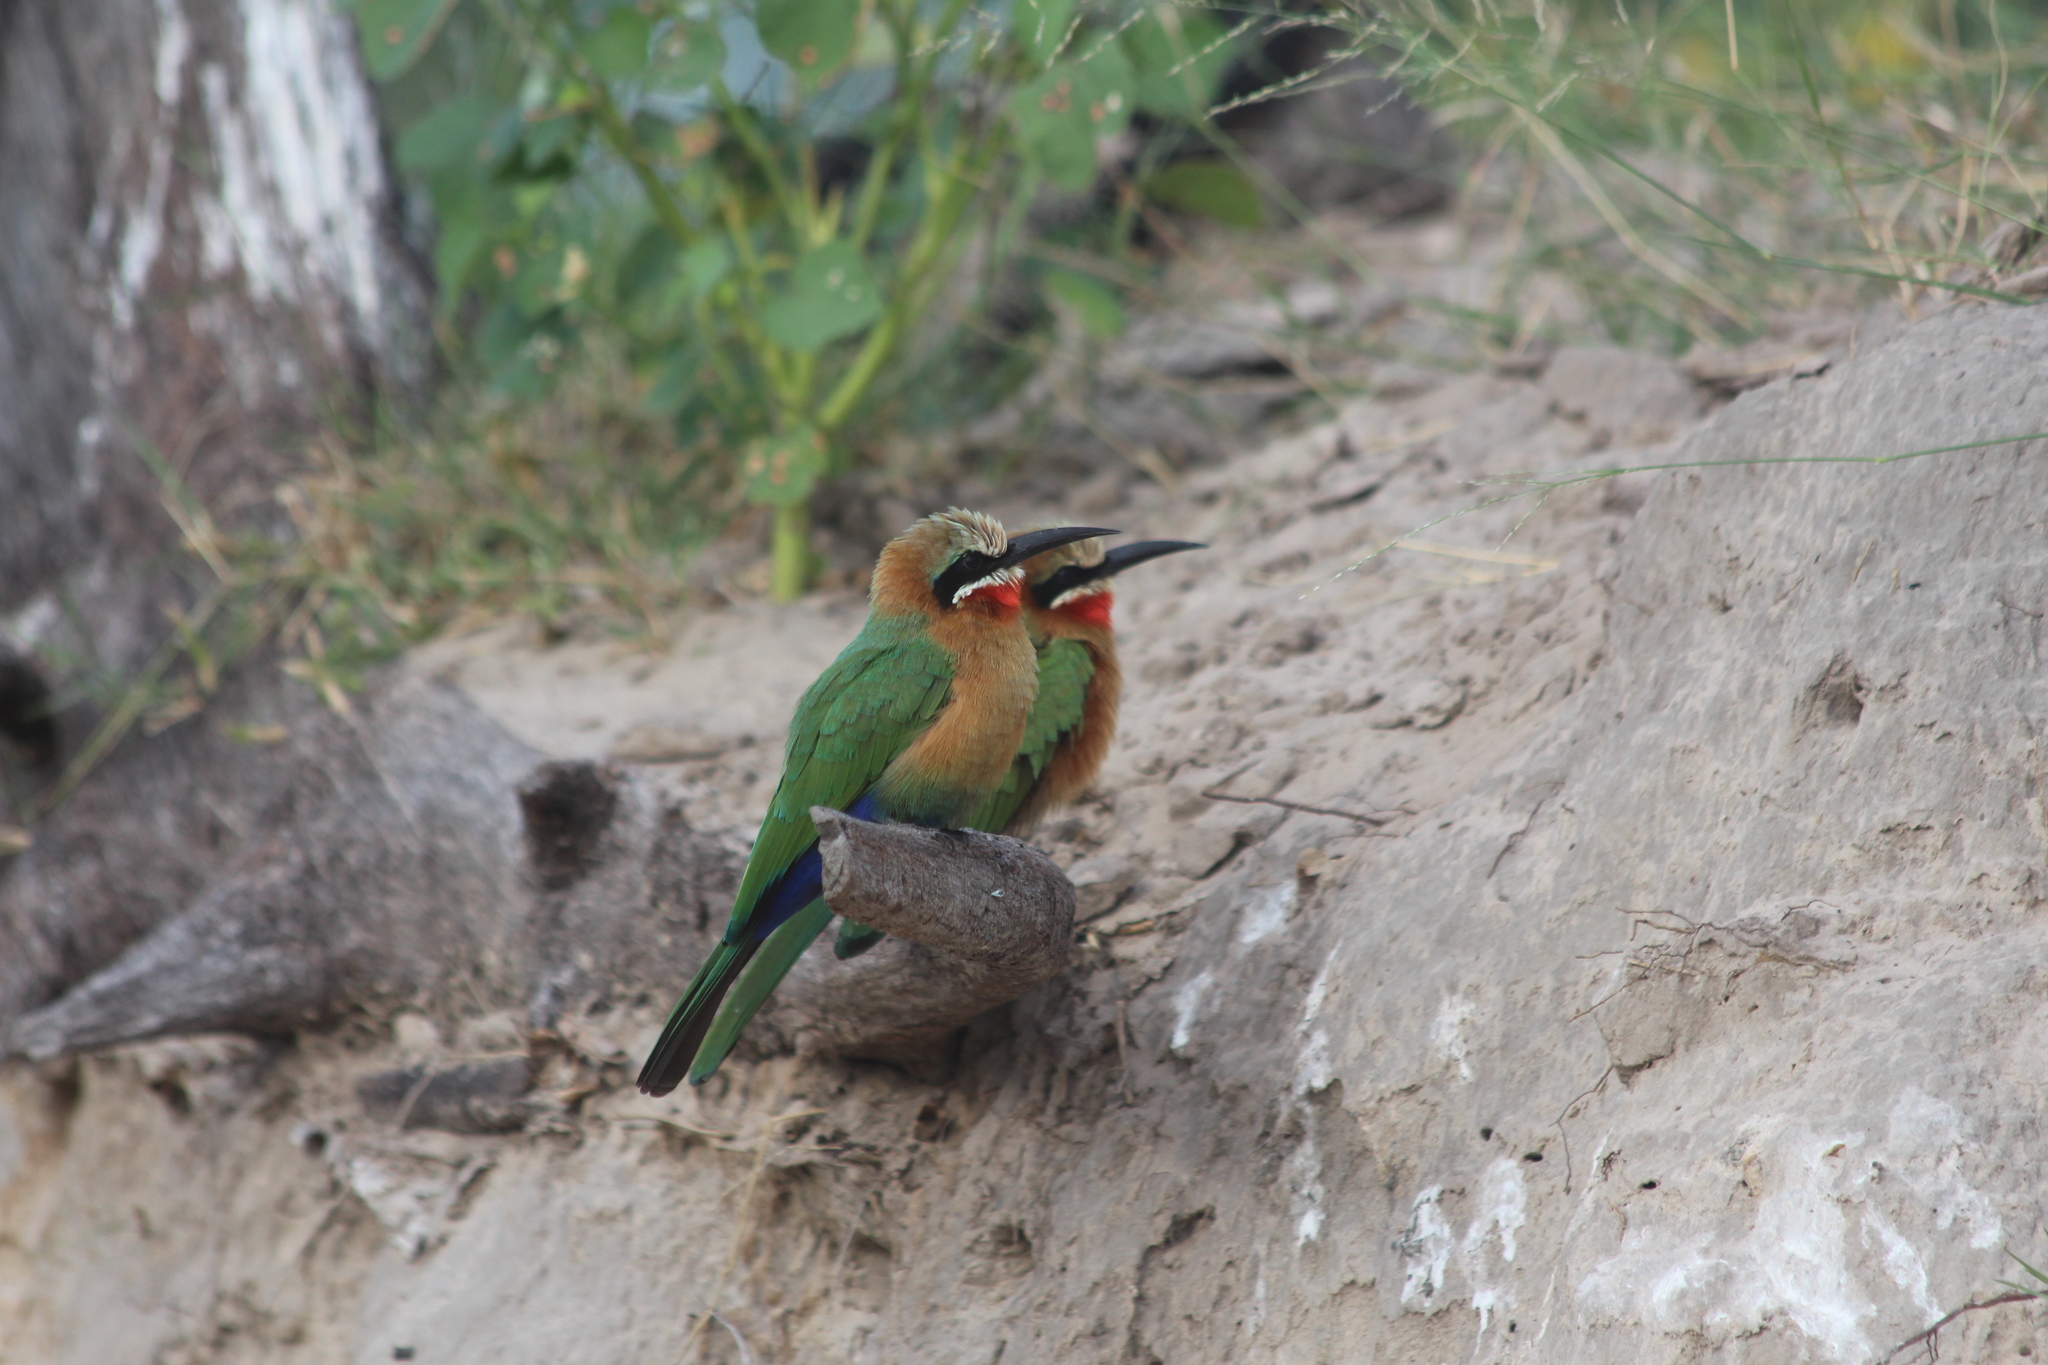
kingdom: Animalia
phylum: Chordata
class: Aves
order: Coraciiformes
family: Meropidae
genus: Merops
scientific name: Merops bullockoides
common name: White-fronted bee-eater
